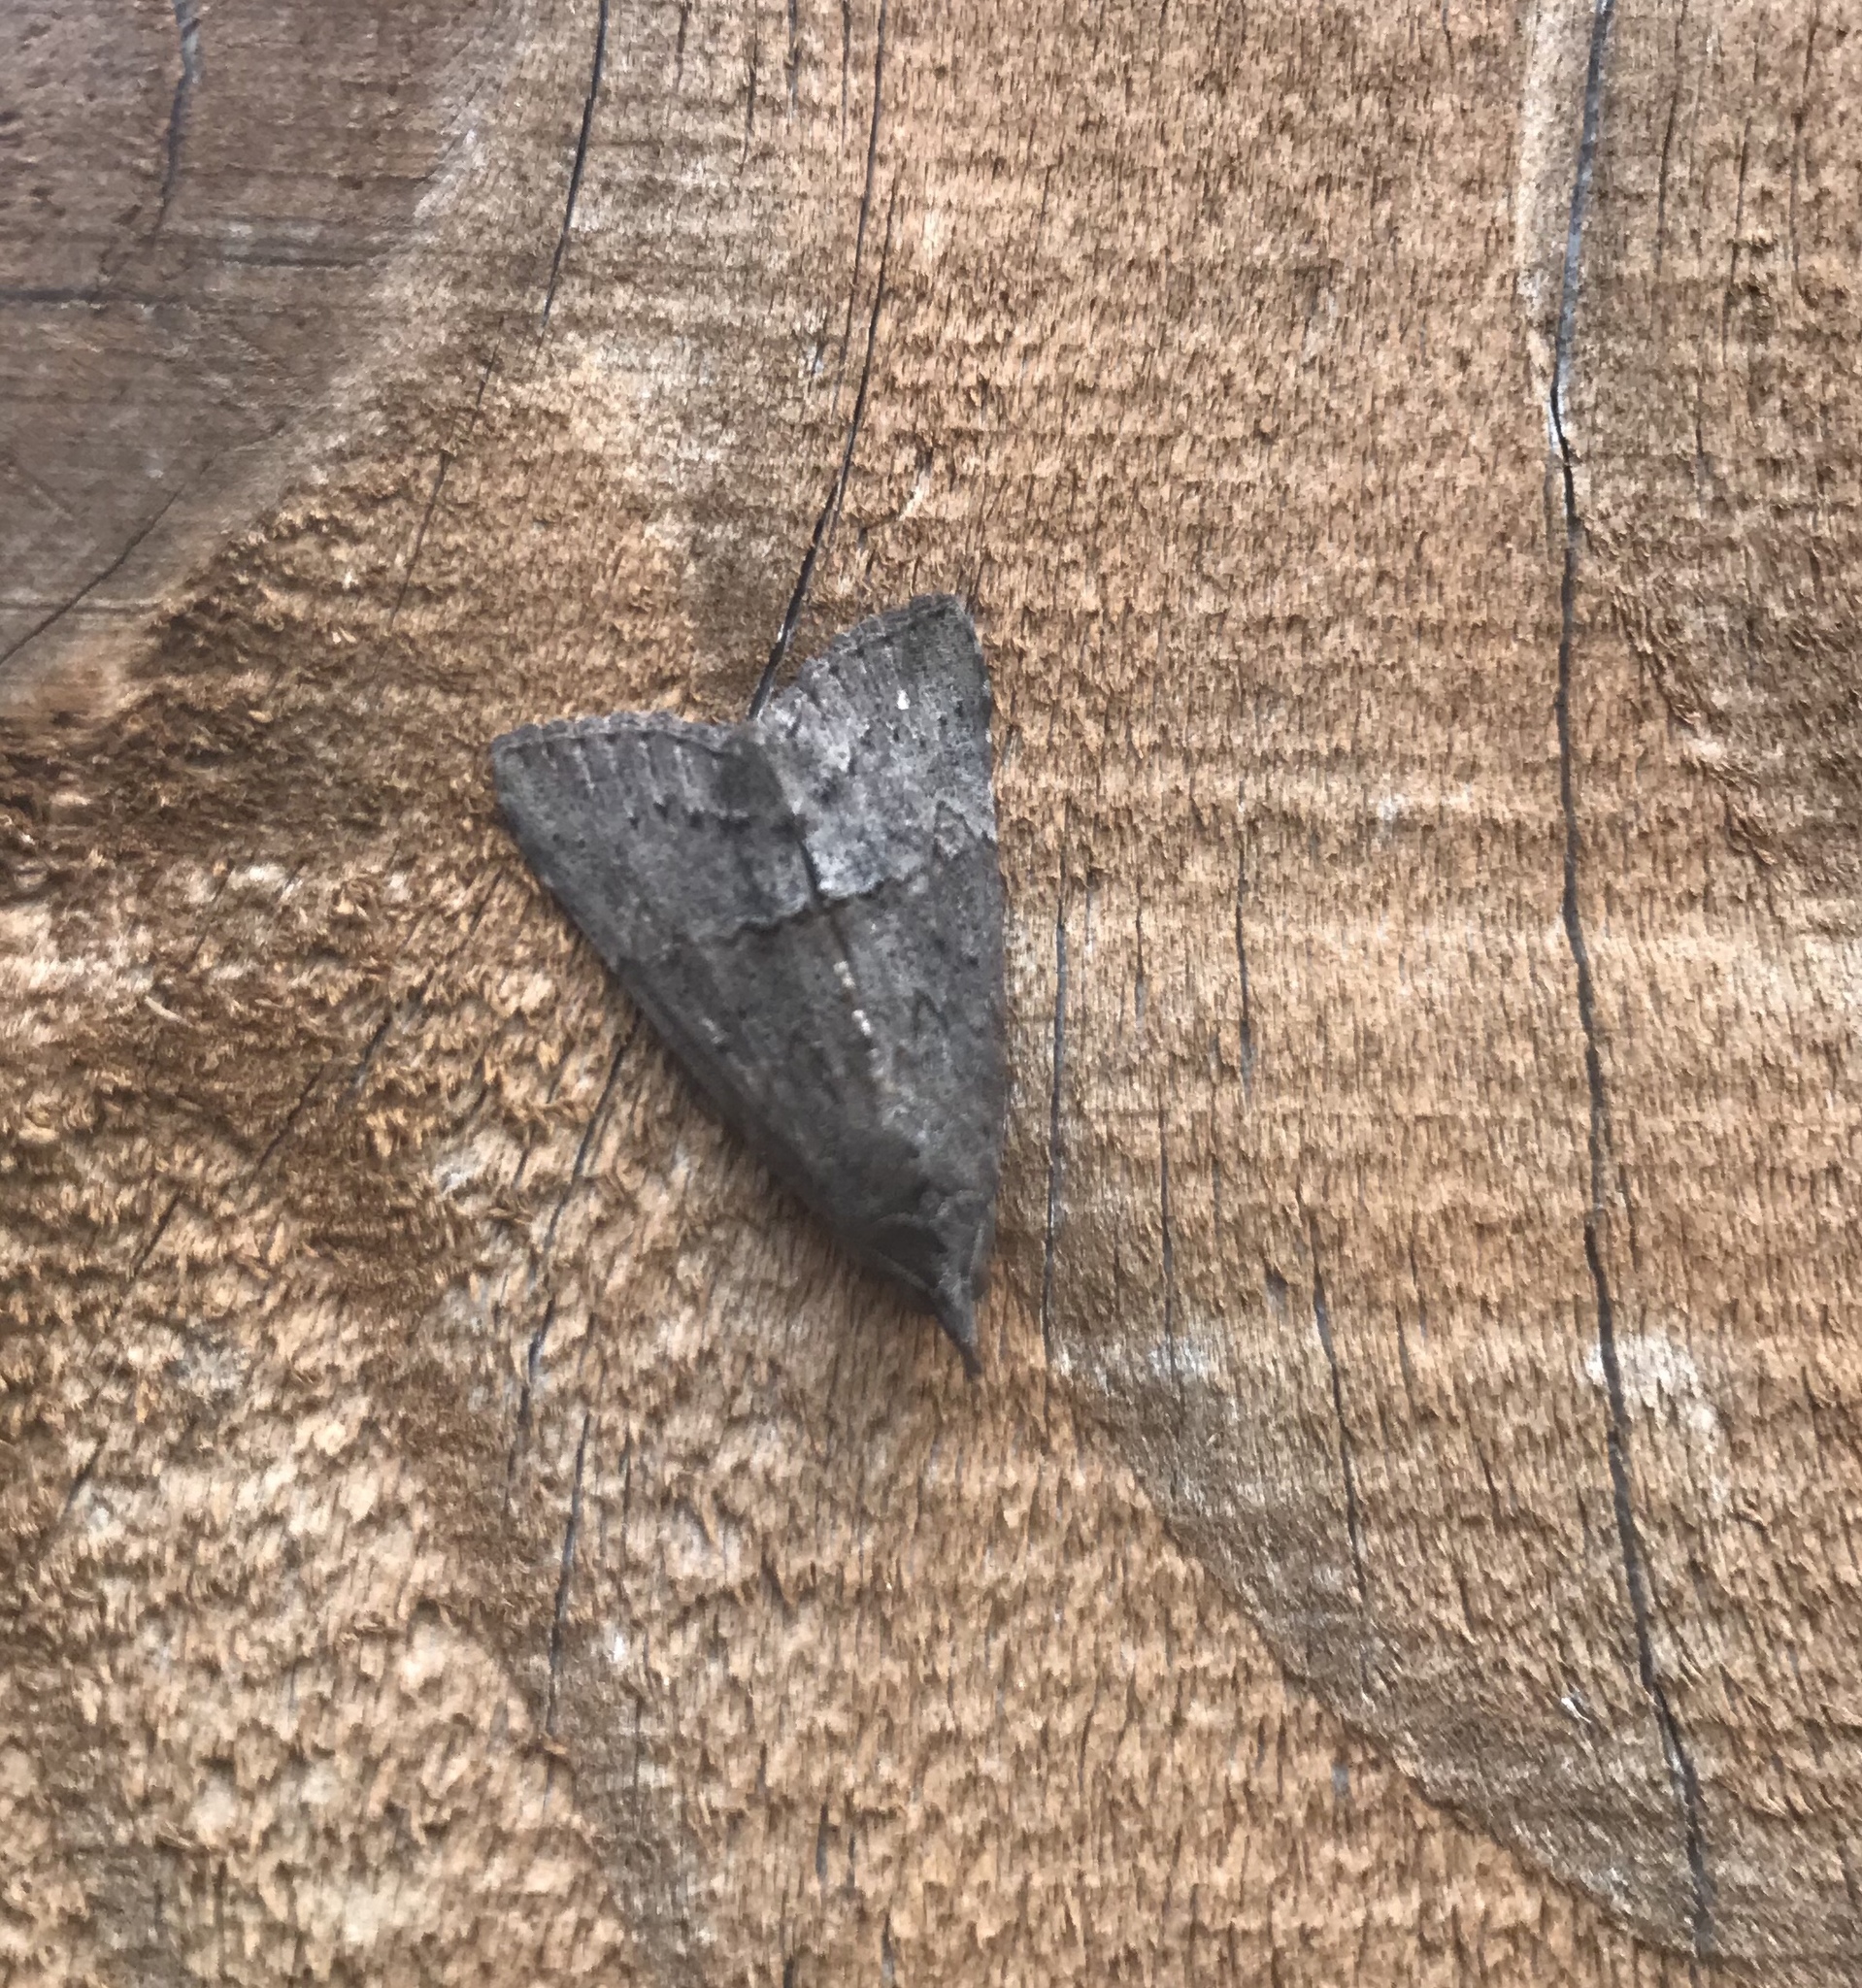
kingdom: Animalia
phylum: Arthropoda
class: Insecta
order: Lepidoptera
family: Erebidae
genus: Hypena
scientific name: Hypena scabra
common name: Green cloverworm
